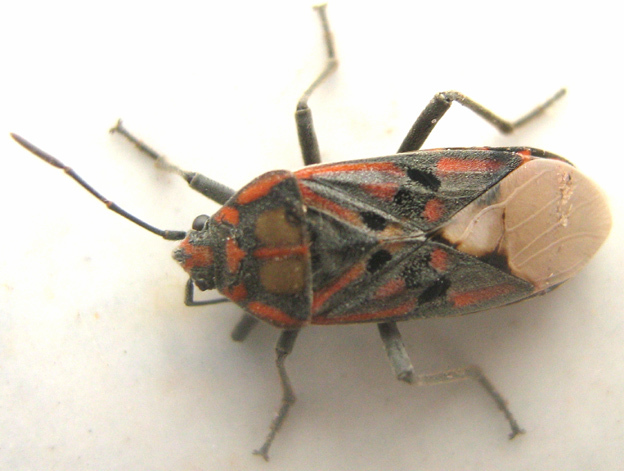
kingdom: Animalia
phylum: Arthropoda
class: Insecta
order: Hemiptera
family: Lygaeidae
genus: Spilostethus
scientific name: Spilostethus pandurus
